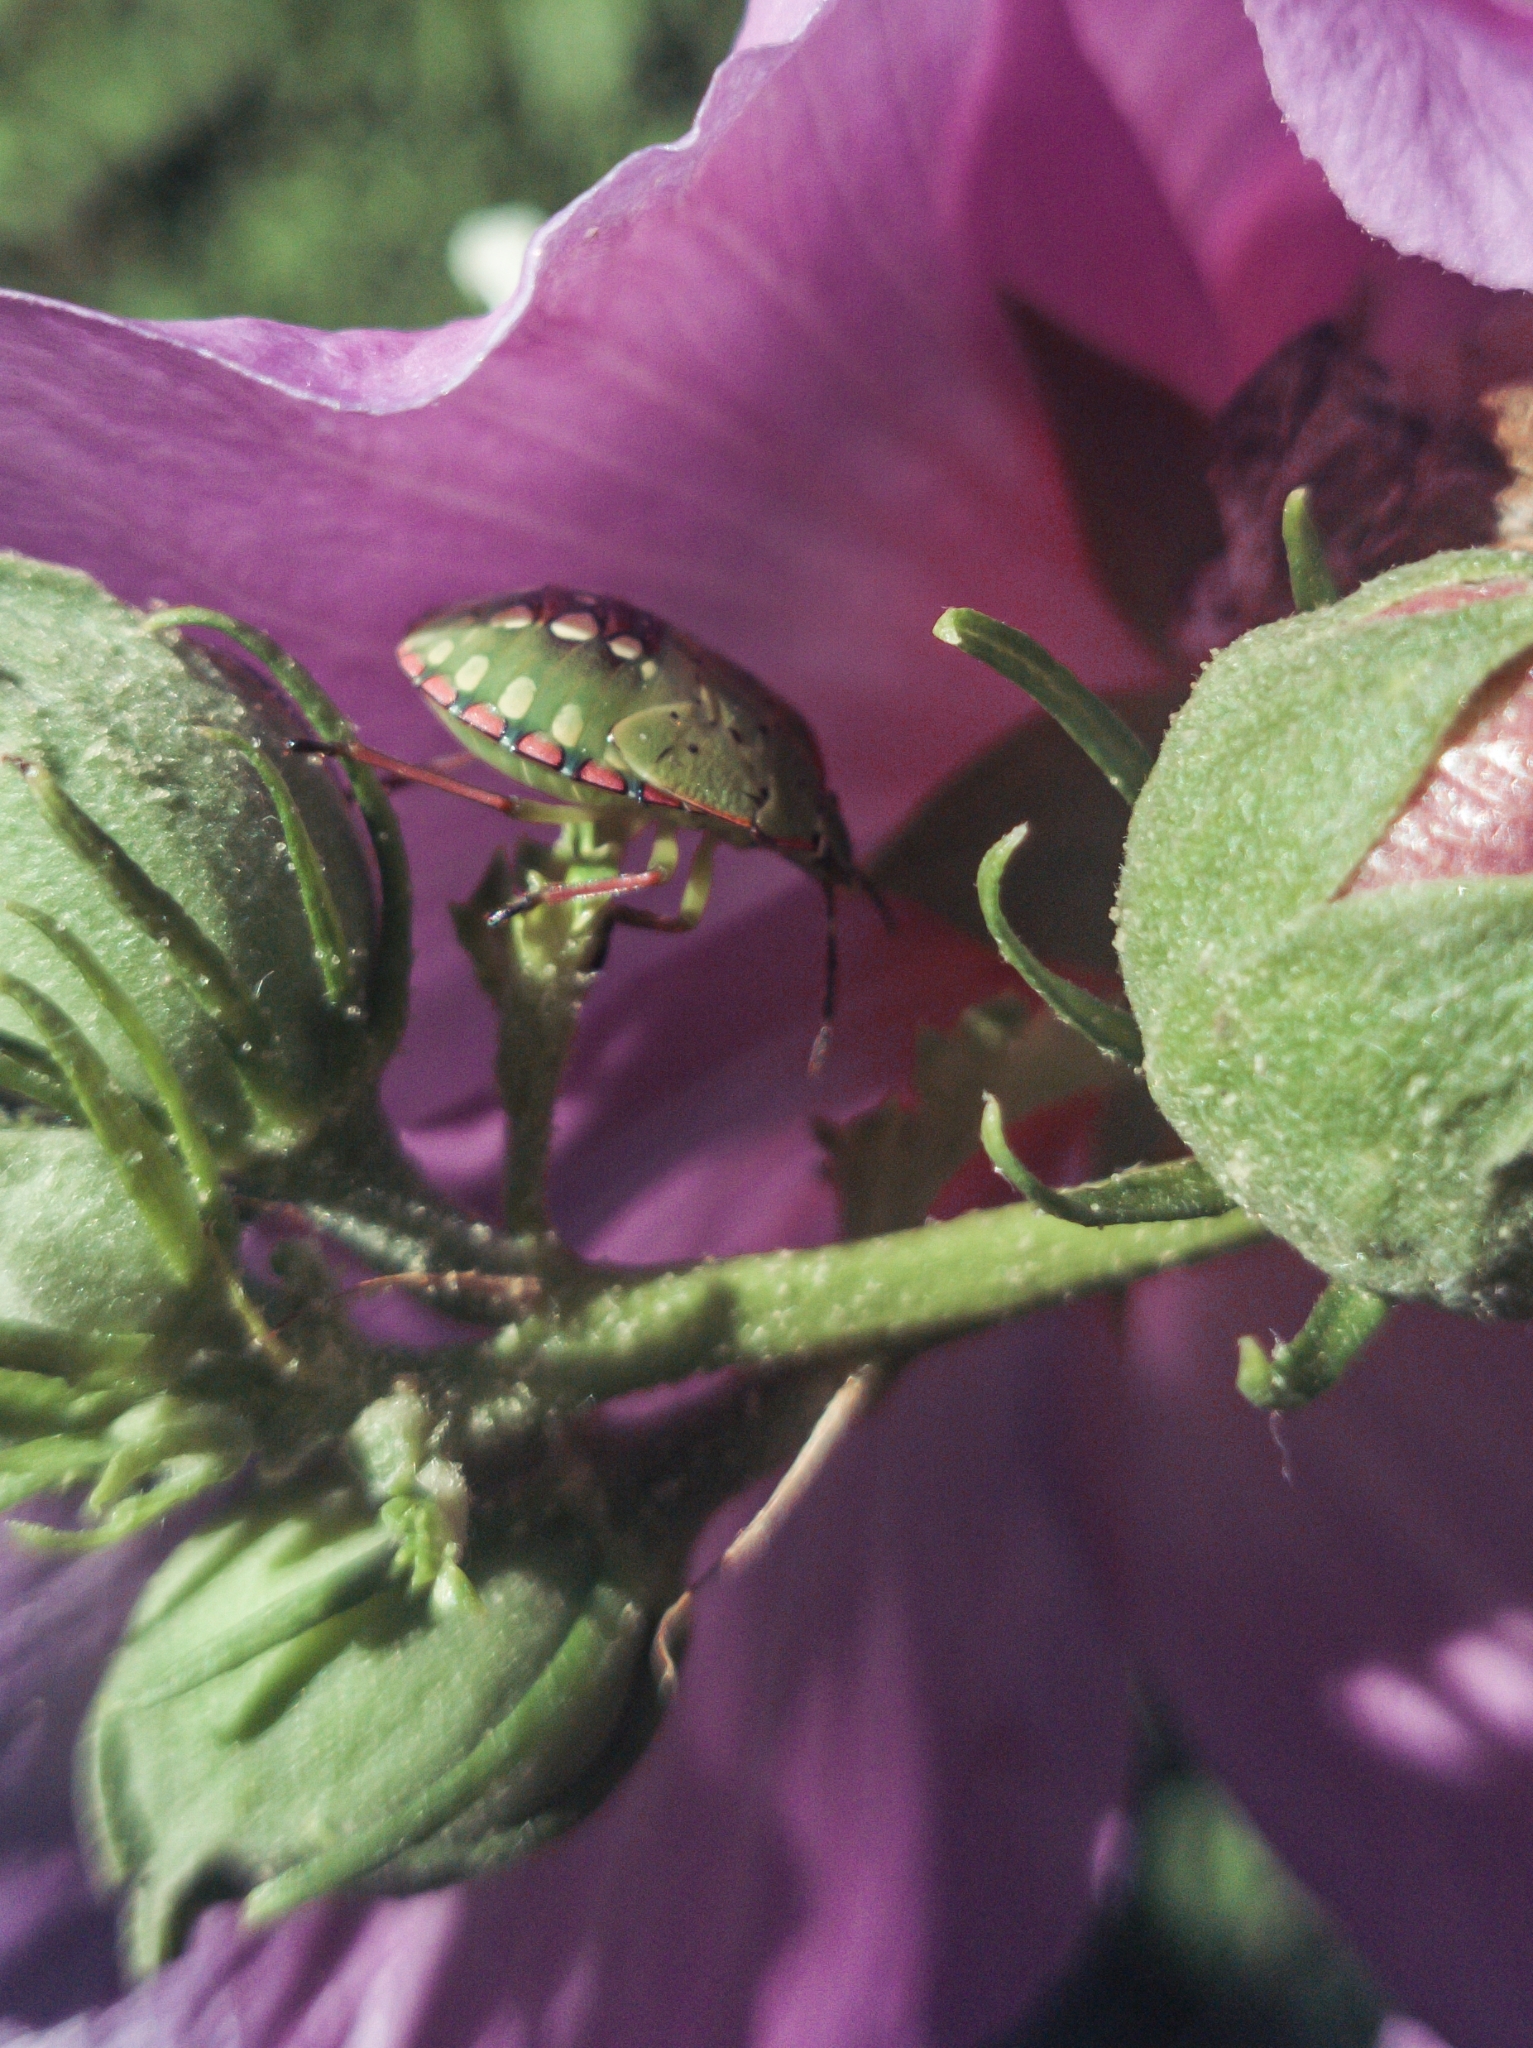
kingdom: Animalia
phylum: Arthropoda
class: Insecta
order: Hemiptera
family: Pentatomidae
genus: Nezara
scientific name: Nezara viridula
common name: Southern green stink bug
